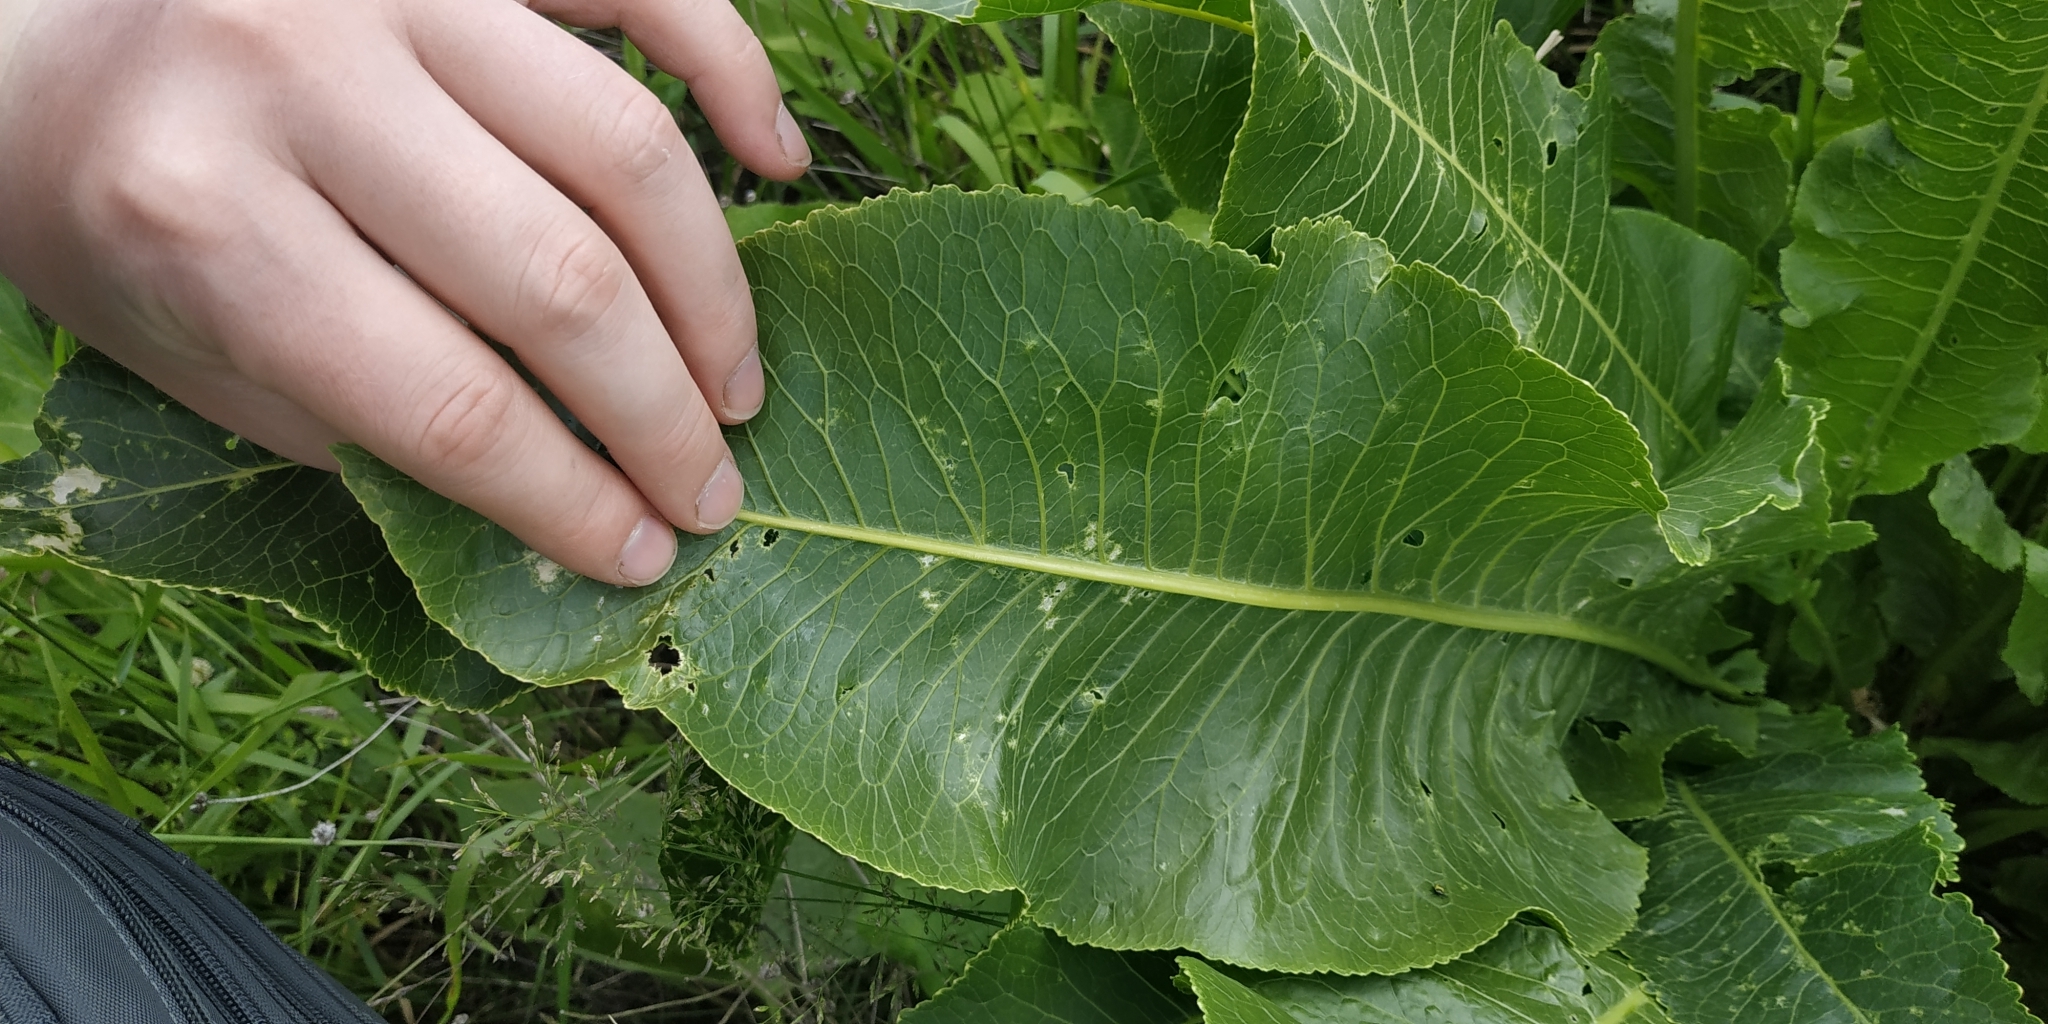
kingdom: Plantae
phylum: Tracheophyta
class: Magnoliopsida
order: Brassicales
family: Brassicaceae
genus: Armoracia
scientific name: Armoracia rusticana
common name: Horseradish
